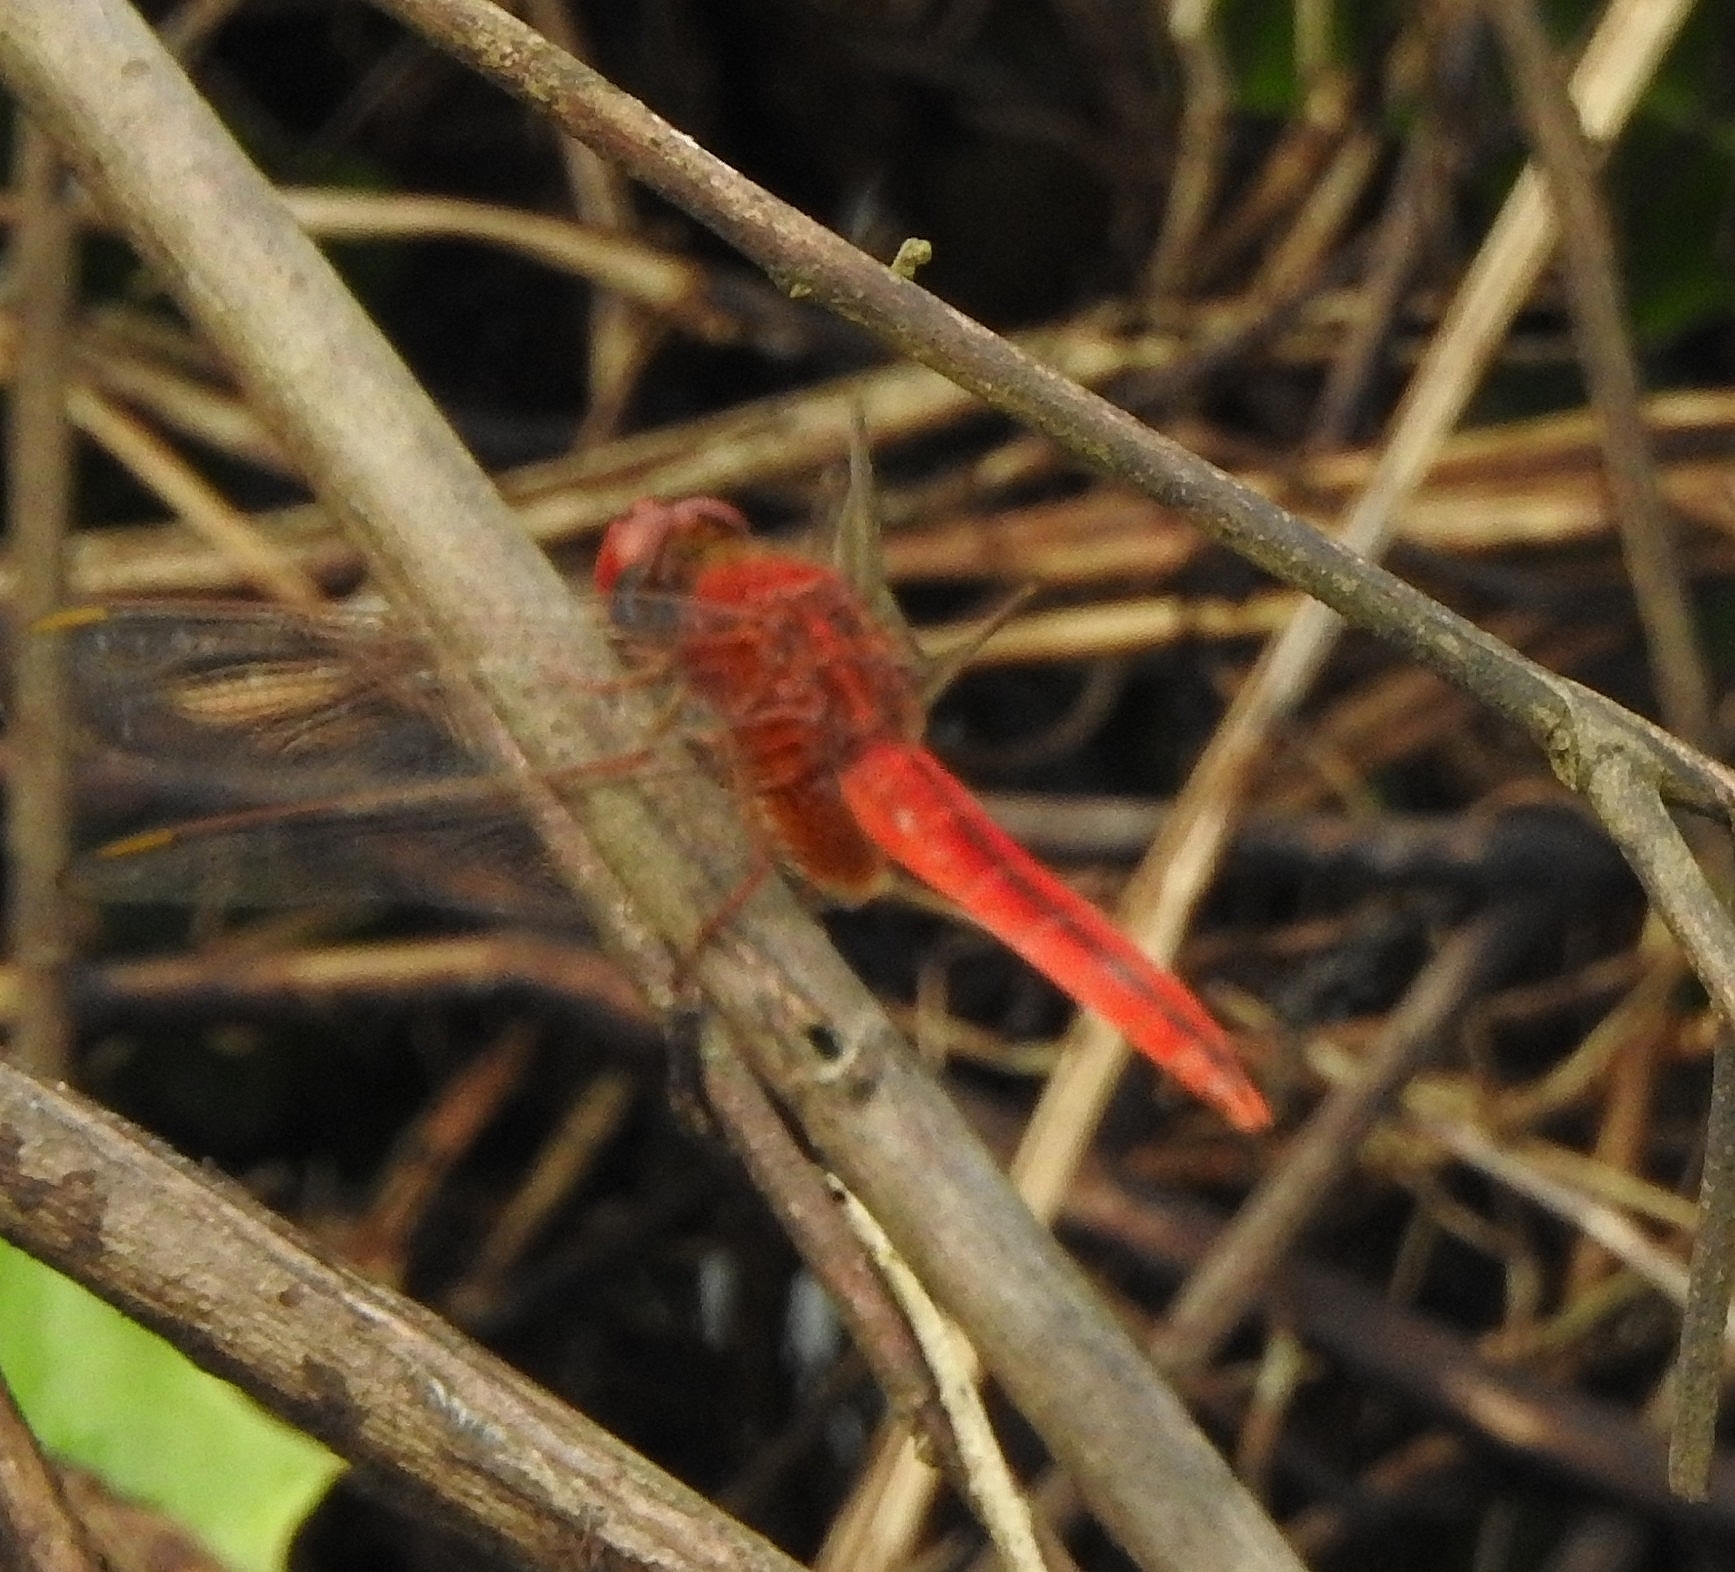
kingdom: Animalia
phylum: Arthropoda
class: Insecta
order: Odonata
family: Libellulidae
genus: Crocothemis
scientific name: Crocothemis servilia
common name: Scarlet skimmer
